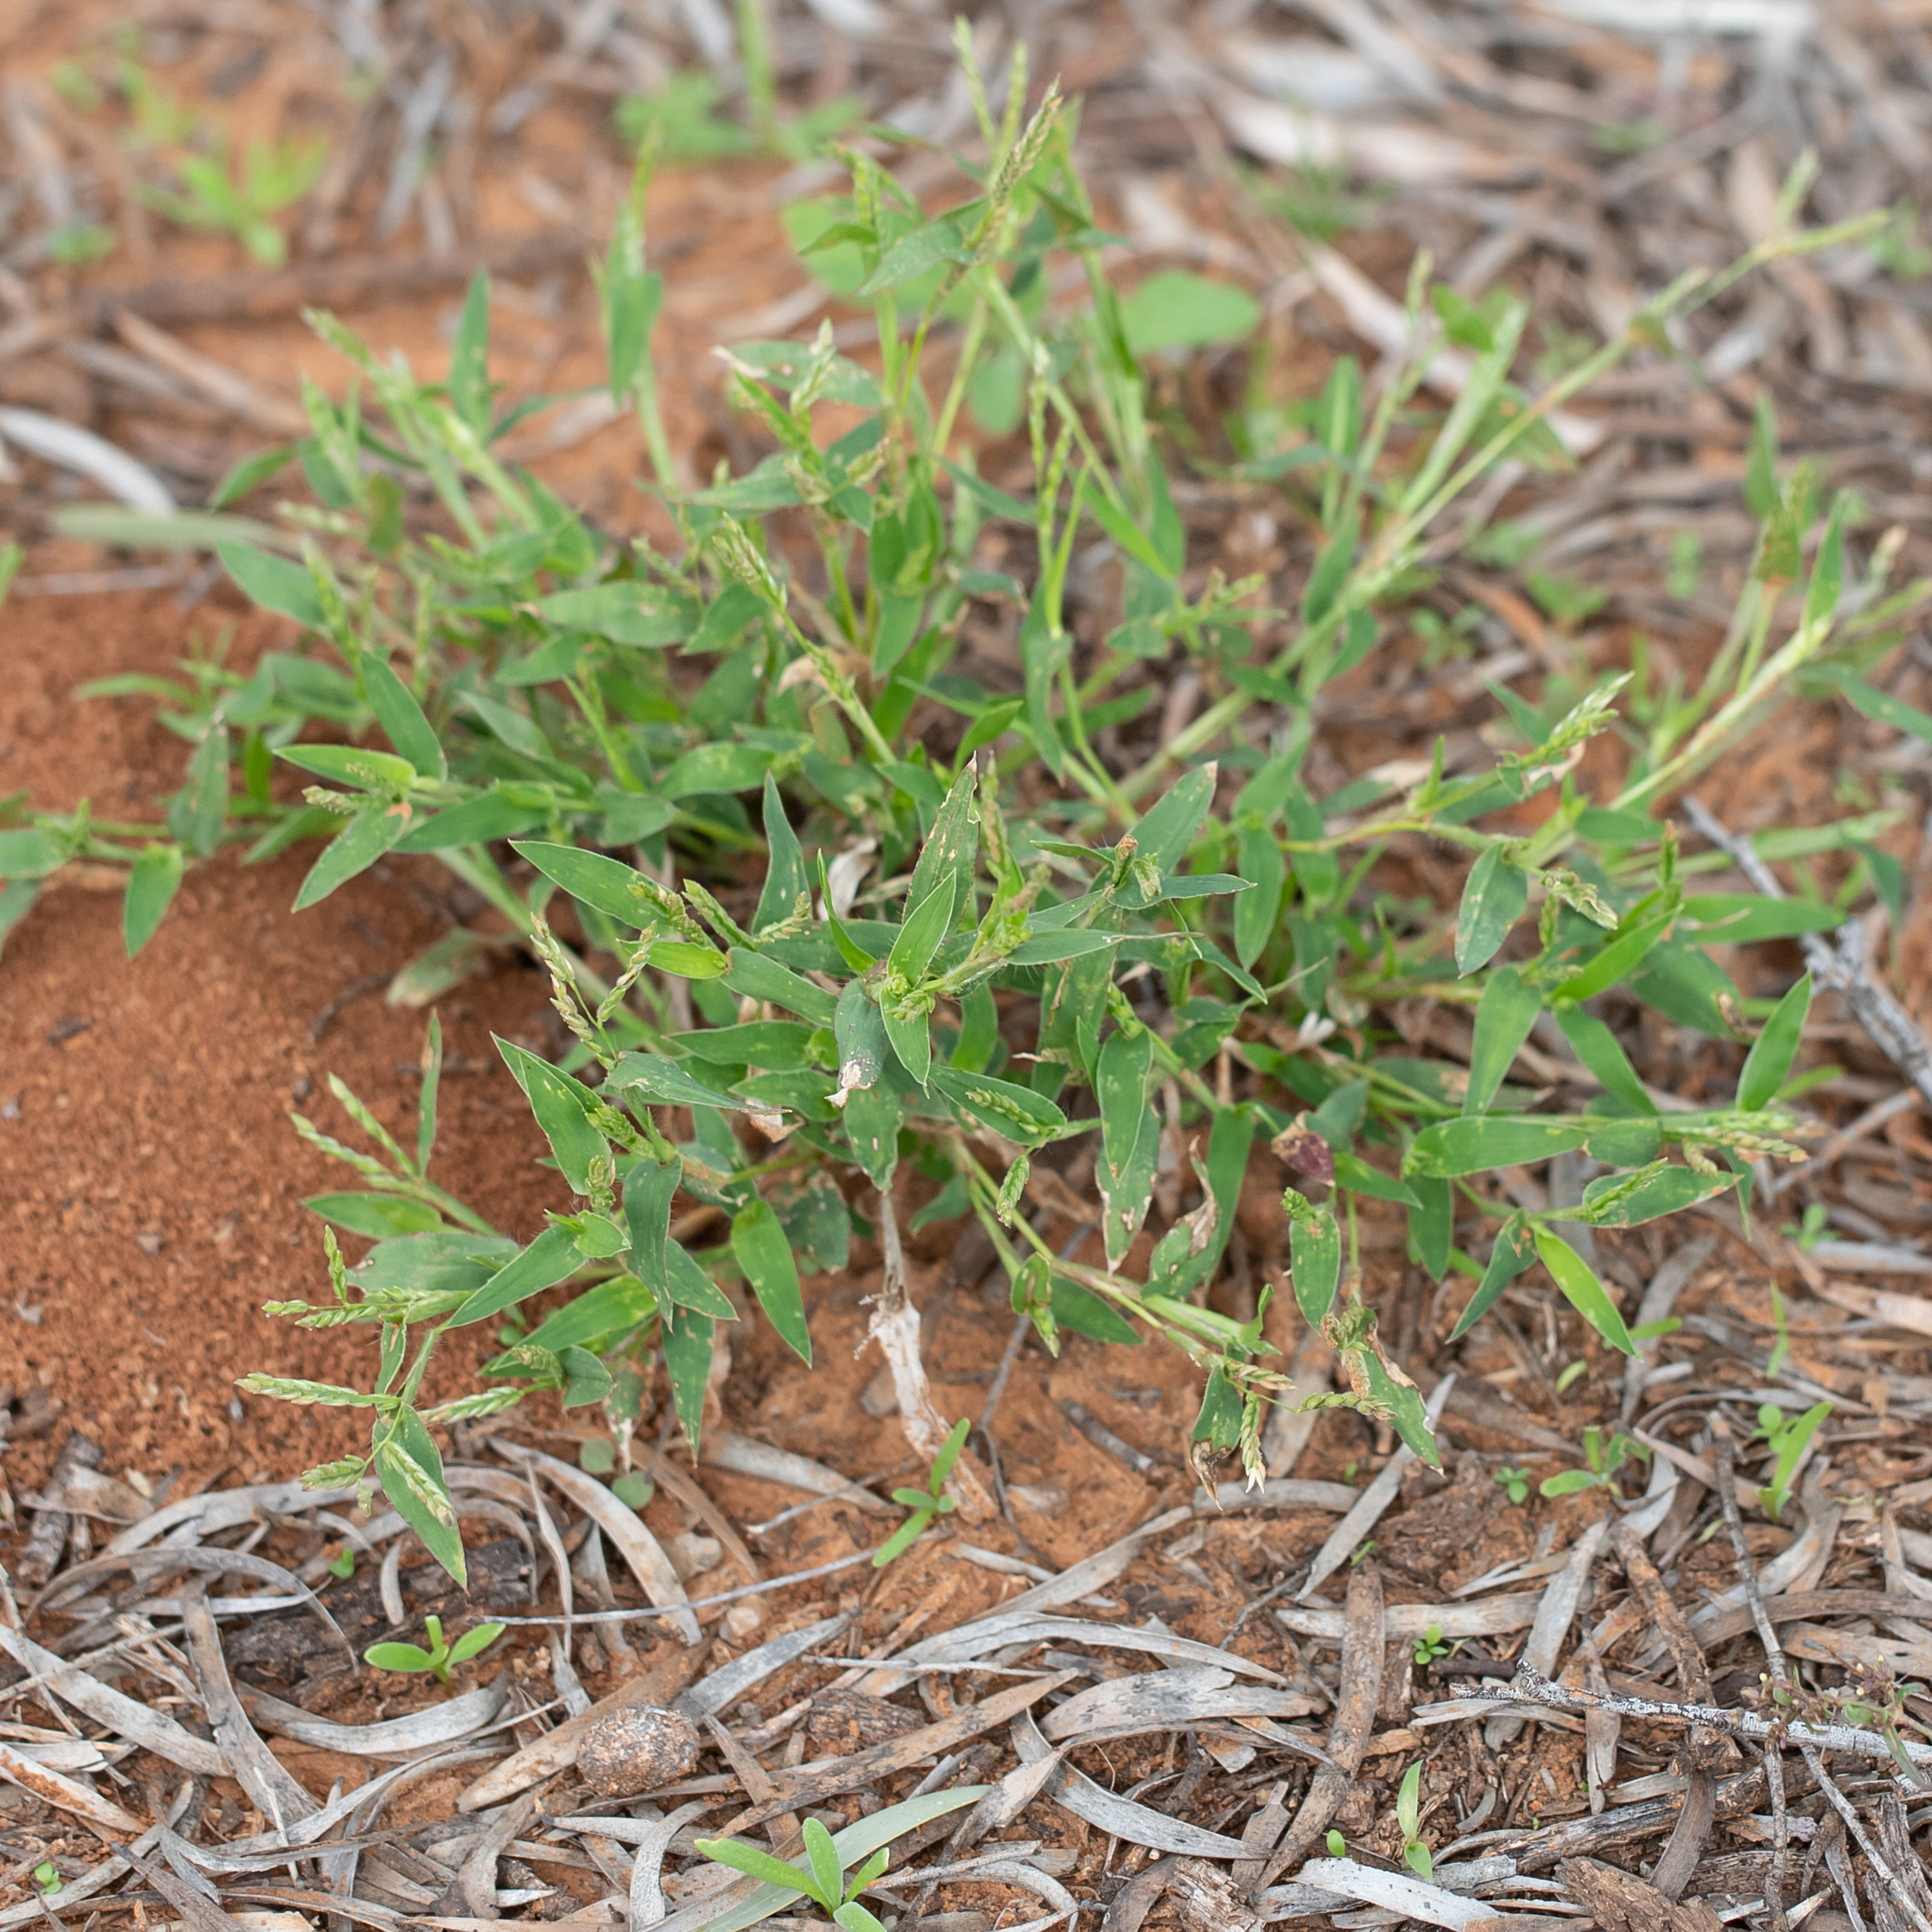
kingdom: Plantae
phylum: Tracheophyta
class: Liliopsida
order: Poales
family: Poaceae
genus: Urochloa
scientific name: Urochloa gilesii
